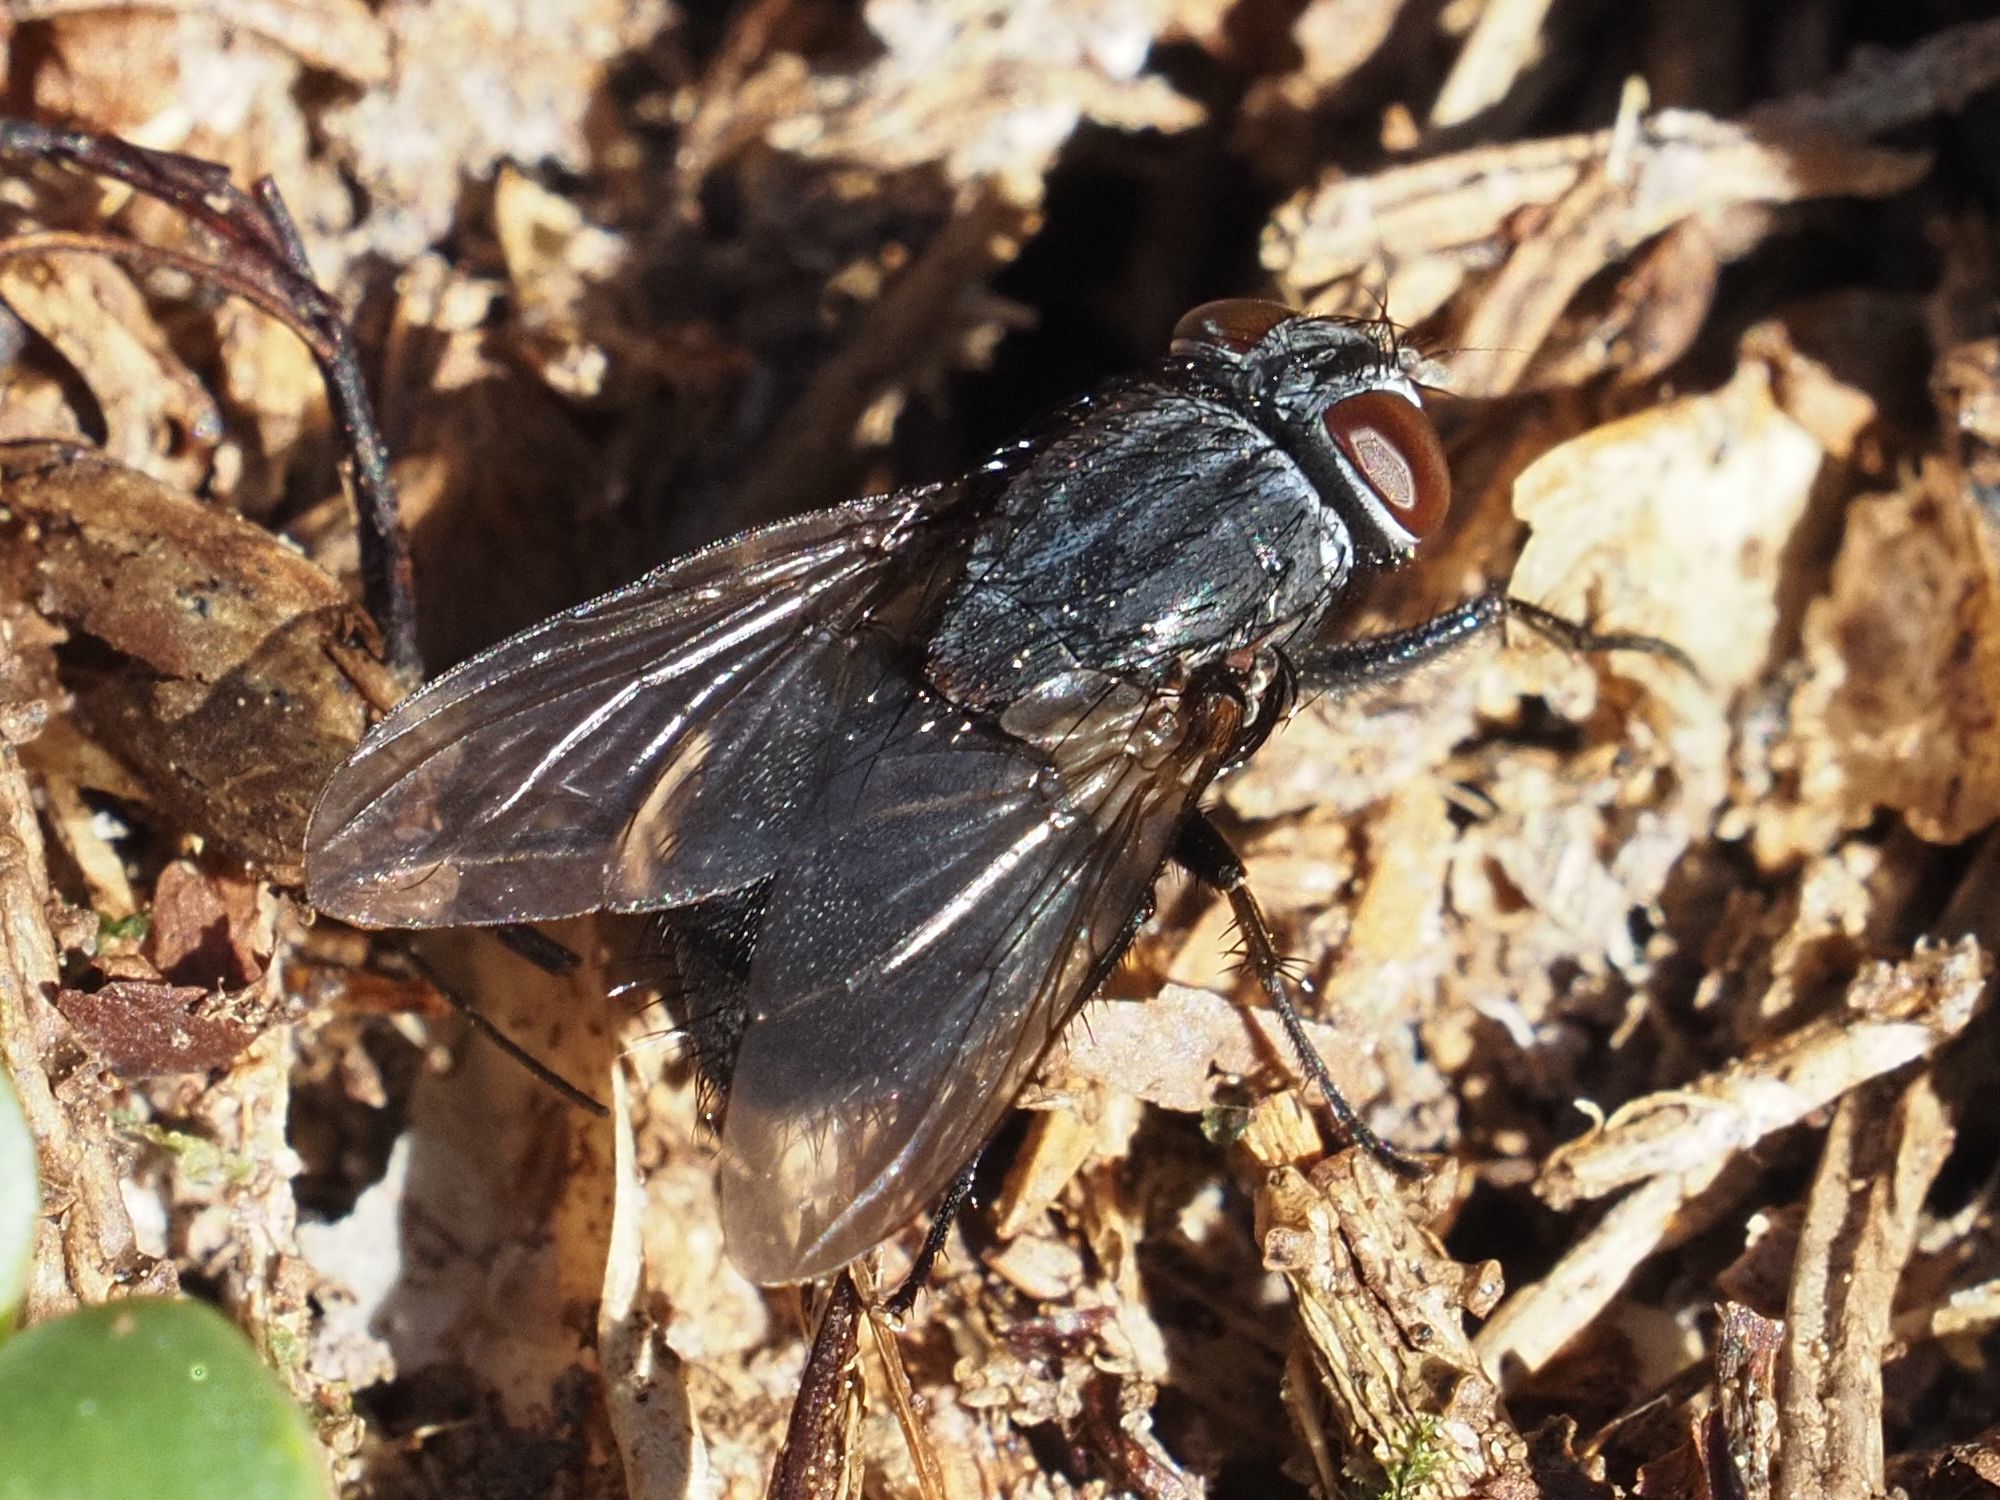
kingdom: Animalia
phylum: Arthropoda
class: Insecta
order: Diptera
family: Muscidae
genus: Muscina
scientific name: Muscina pascuorum
